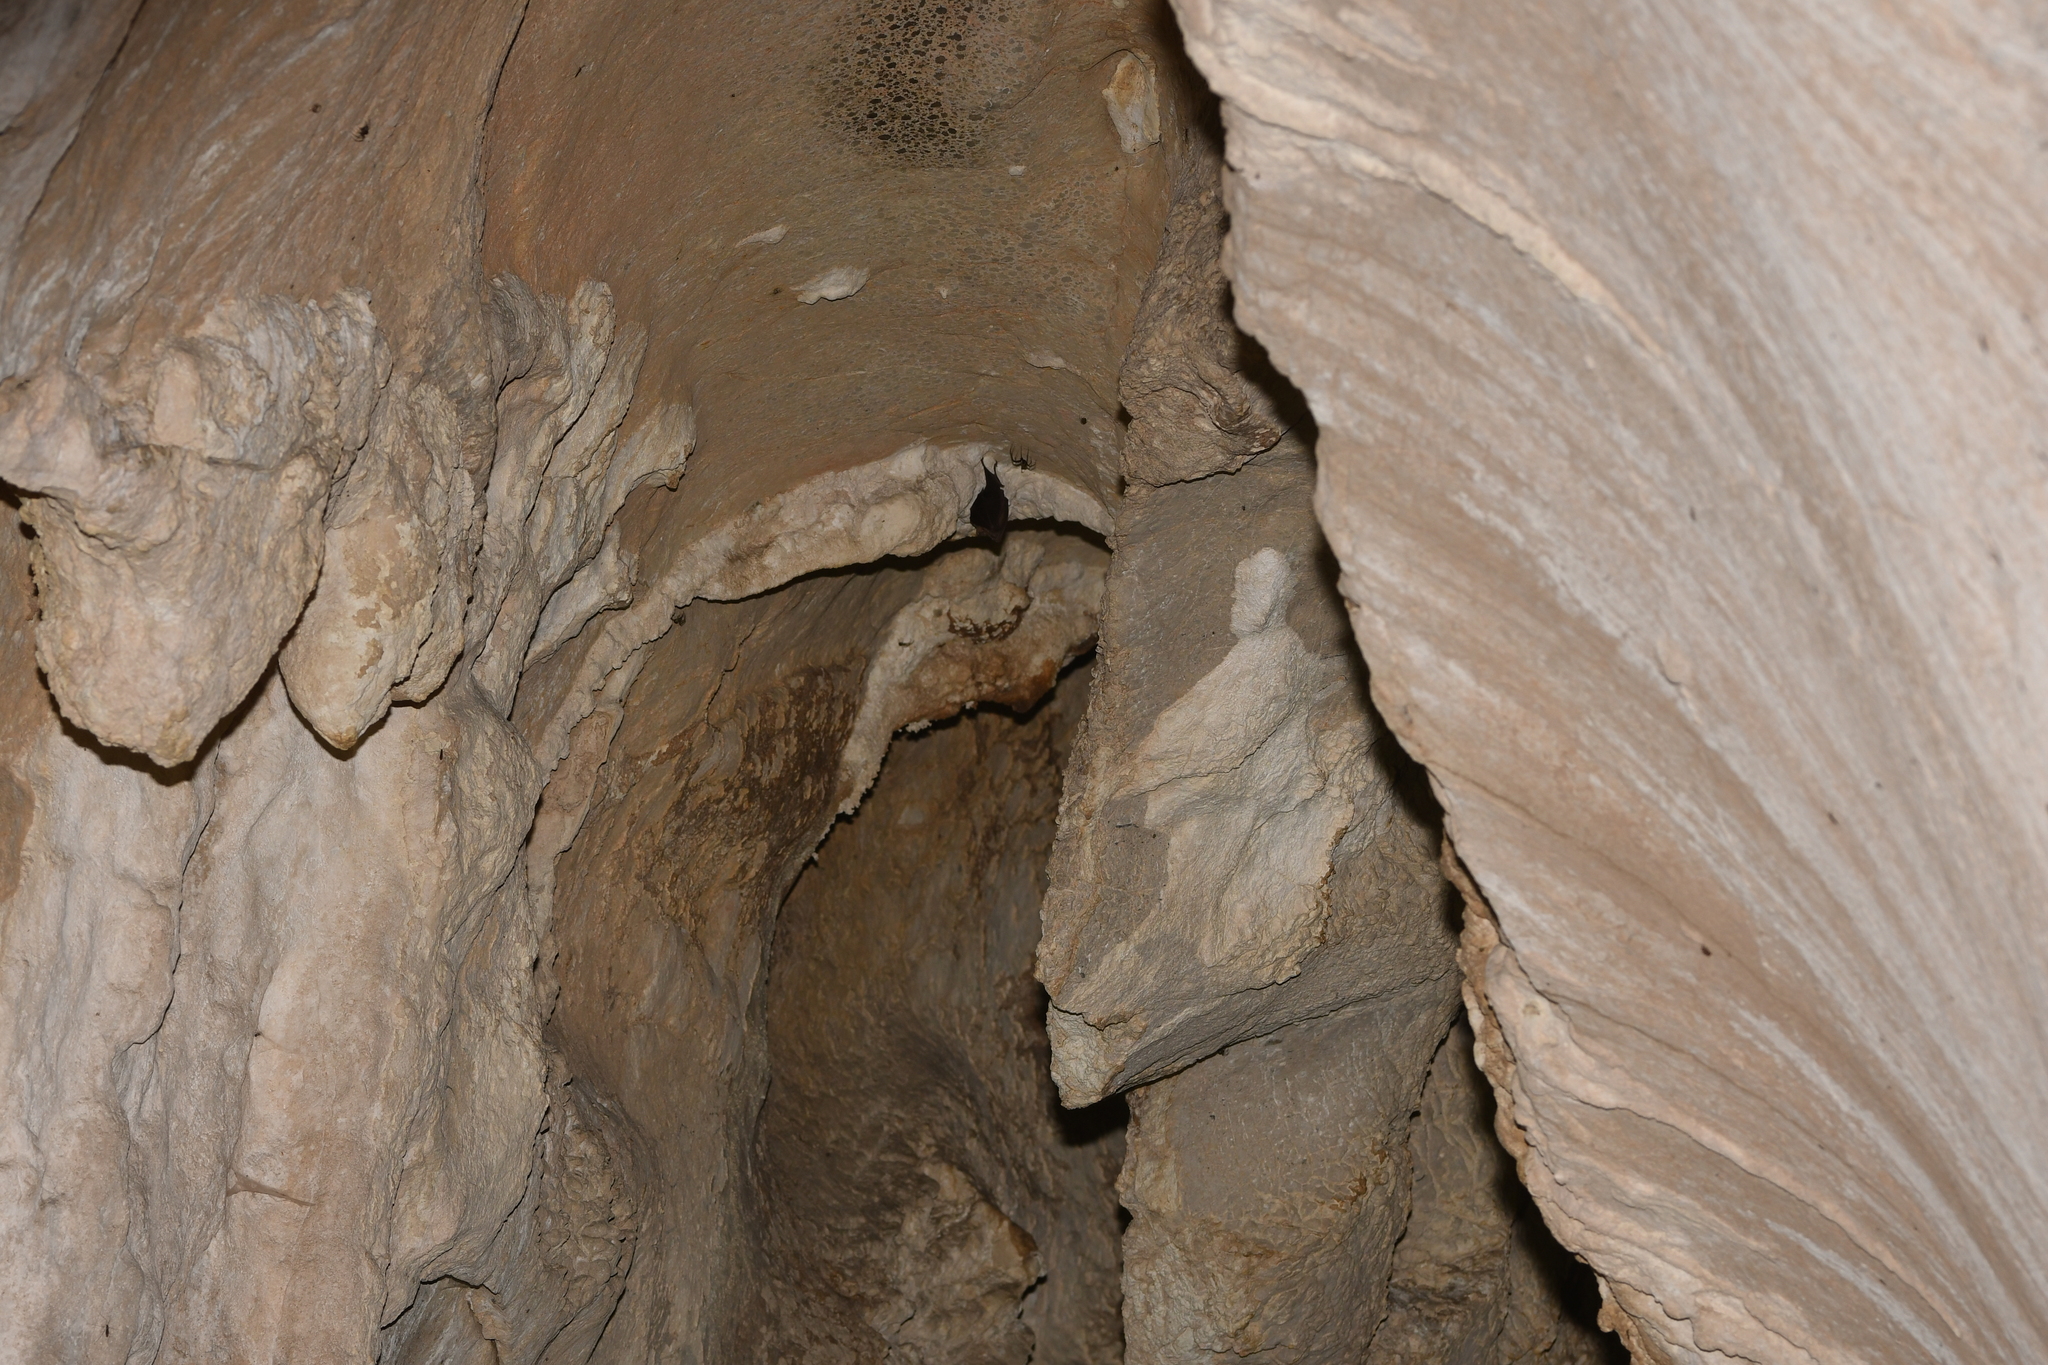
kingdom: Animalia
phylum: Chordata
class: Mammalia
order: Chiroptera
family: Rhinolophidae
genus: Rhinolophus
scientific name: Rhinolophus ferrumequinum
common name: Greater horseshoe bat
